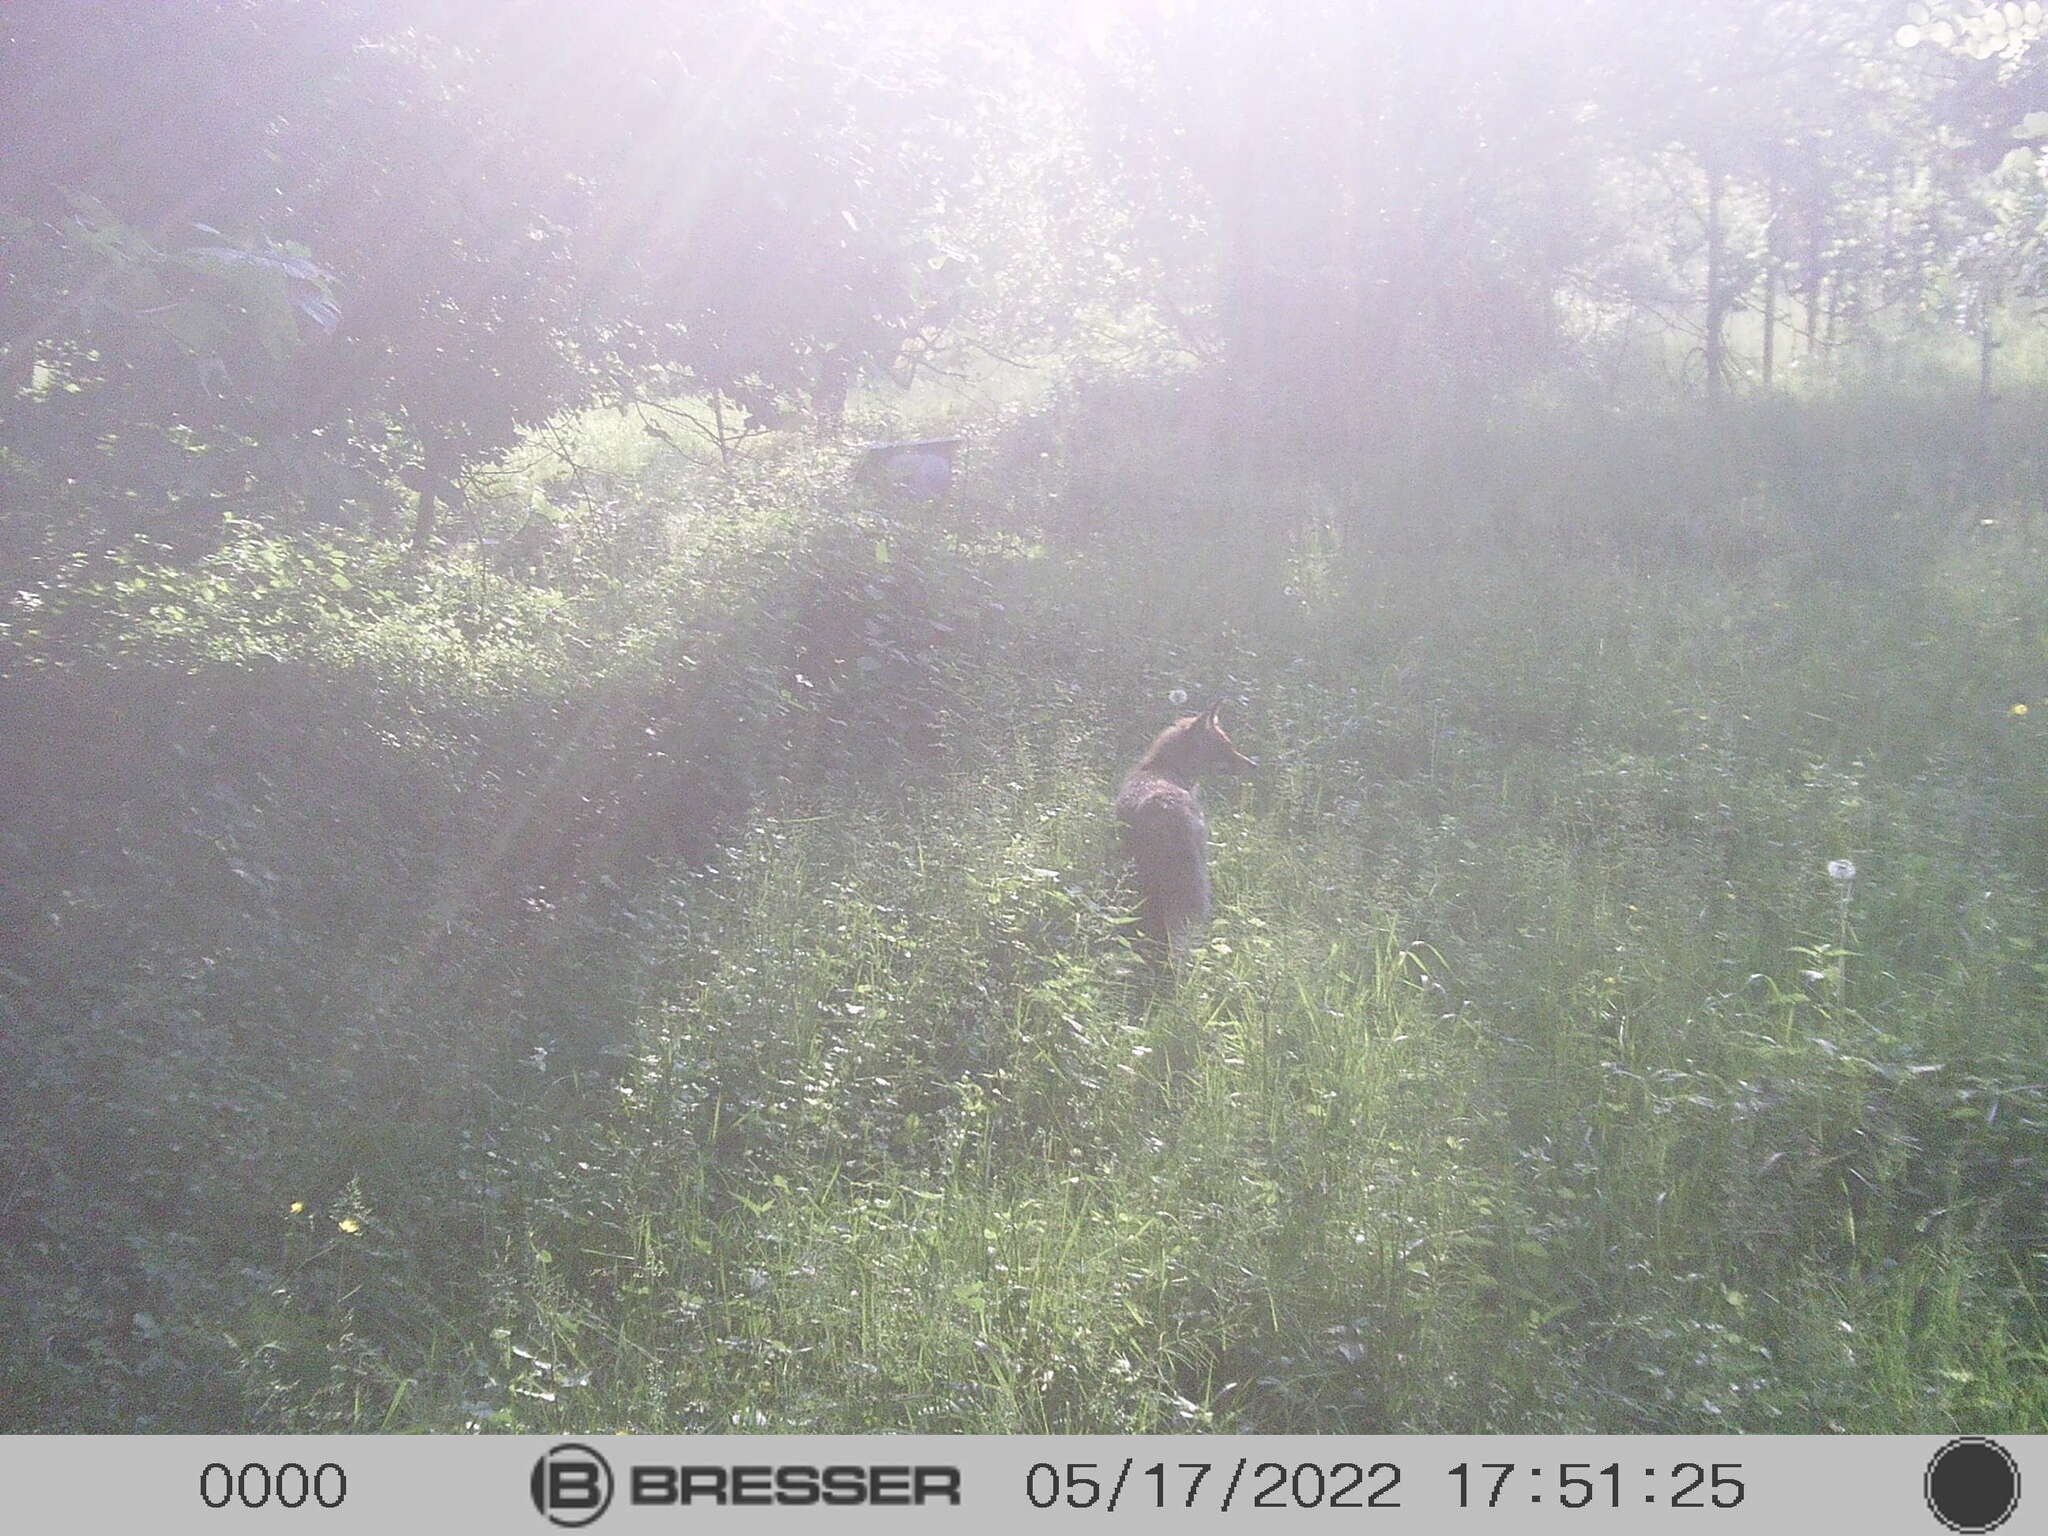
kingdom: Animalia
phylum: Chordata
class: Mammalia
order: Carnivora
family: Canidae
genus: Vulpes
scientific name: Vulpes vulpes
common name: Red fox
